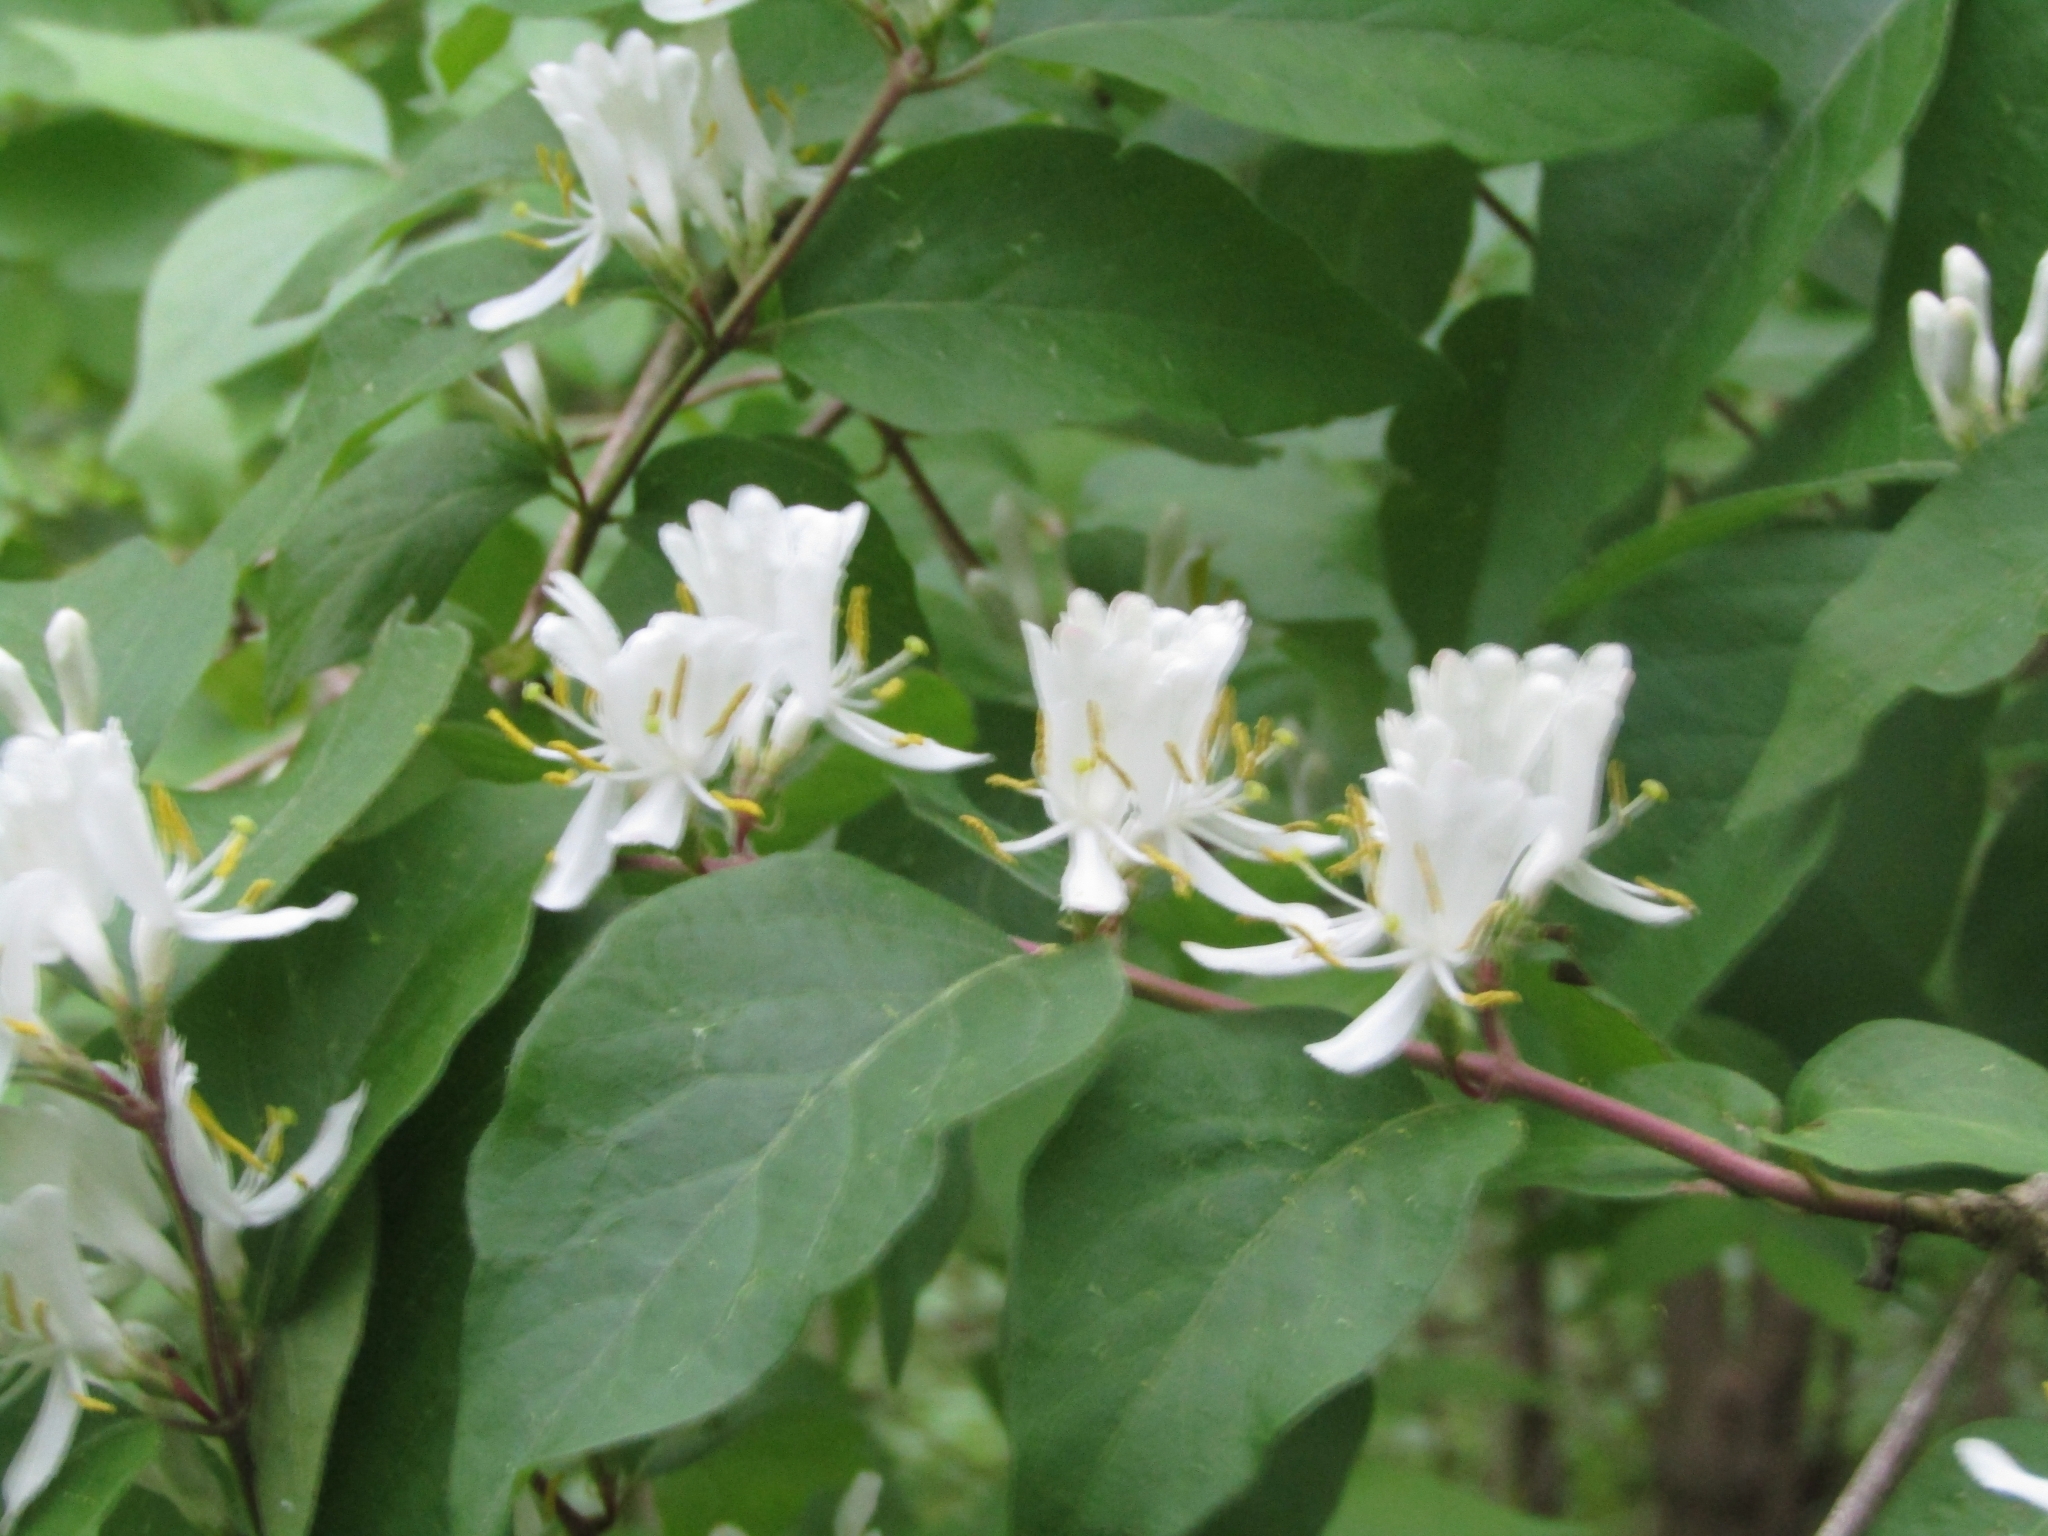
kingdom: Plantae
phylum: Tracheophyta
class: Magnoliopsida
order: Dipsacales
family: Caprifoliaceae
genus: Lonicera
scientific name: Lonicera maackii
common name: Amur honeysuckle
